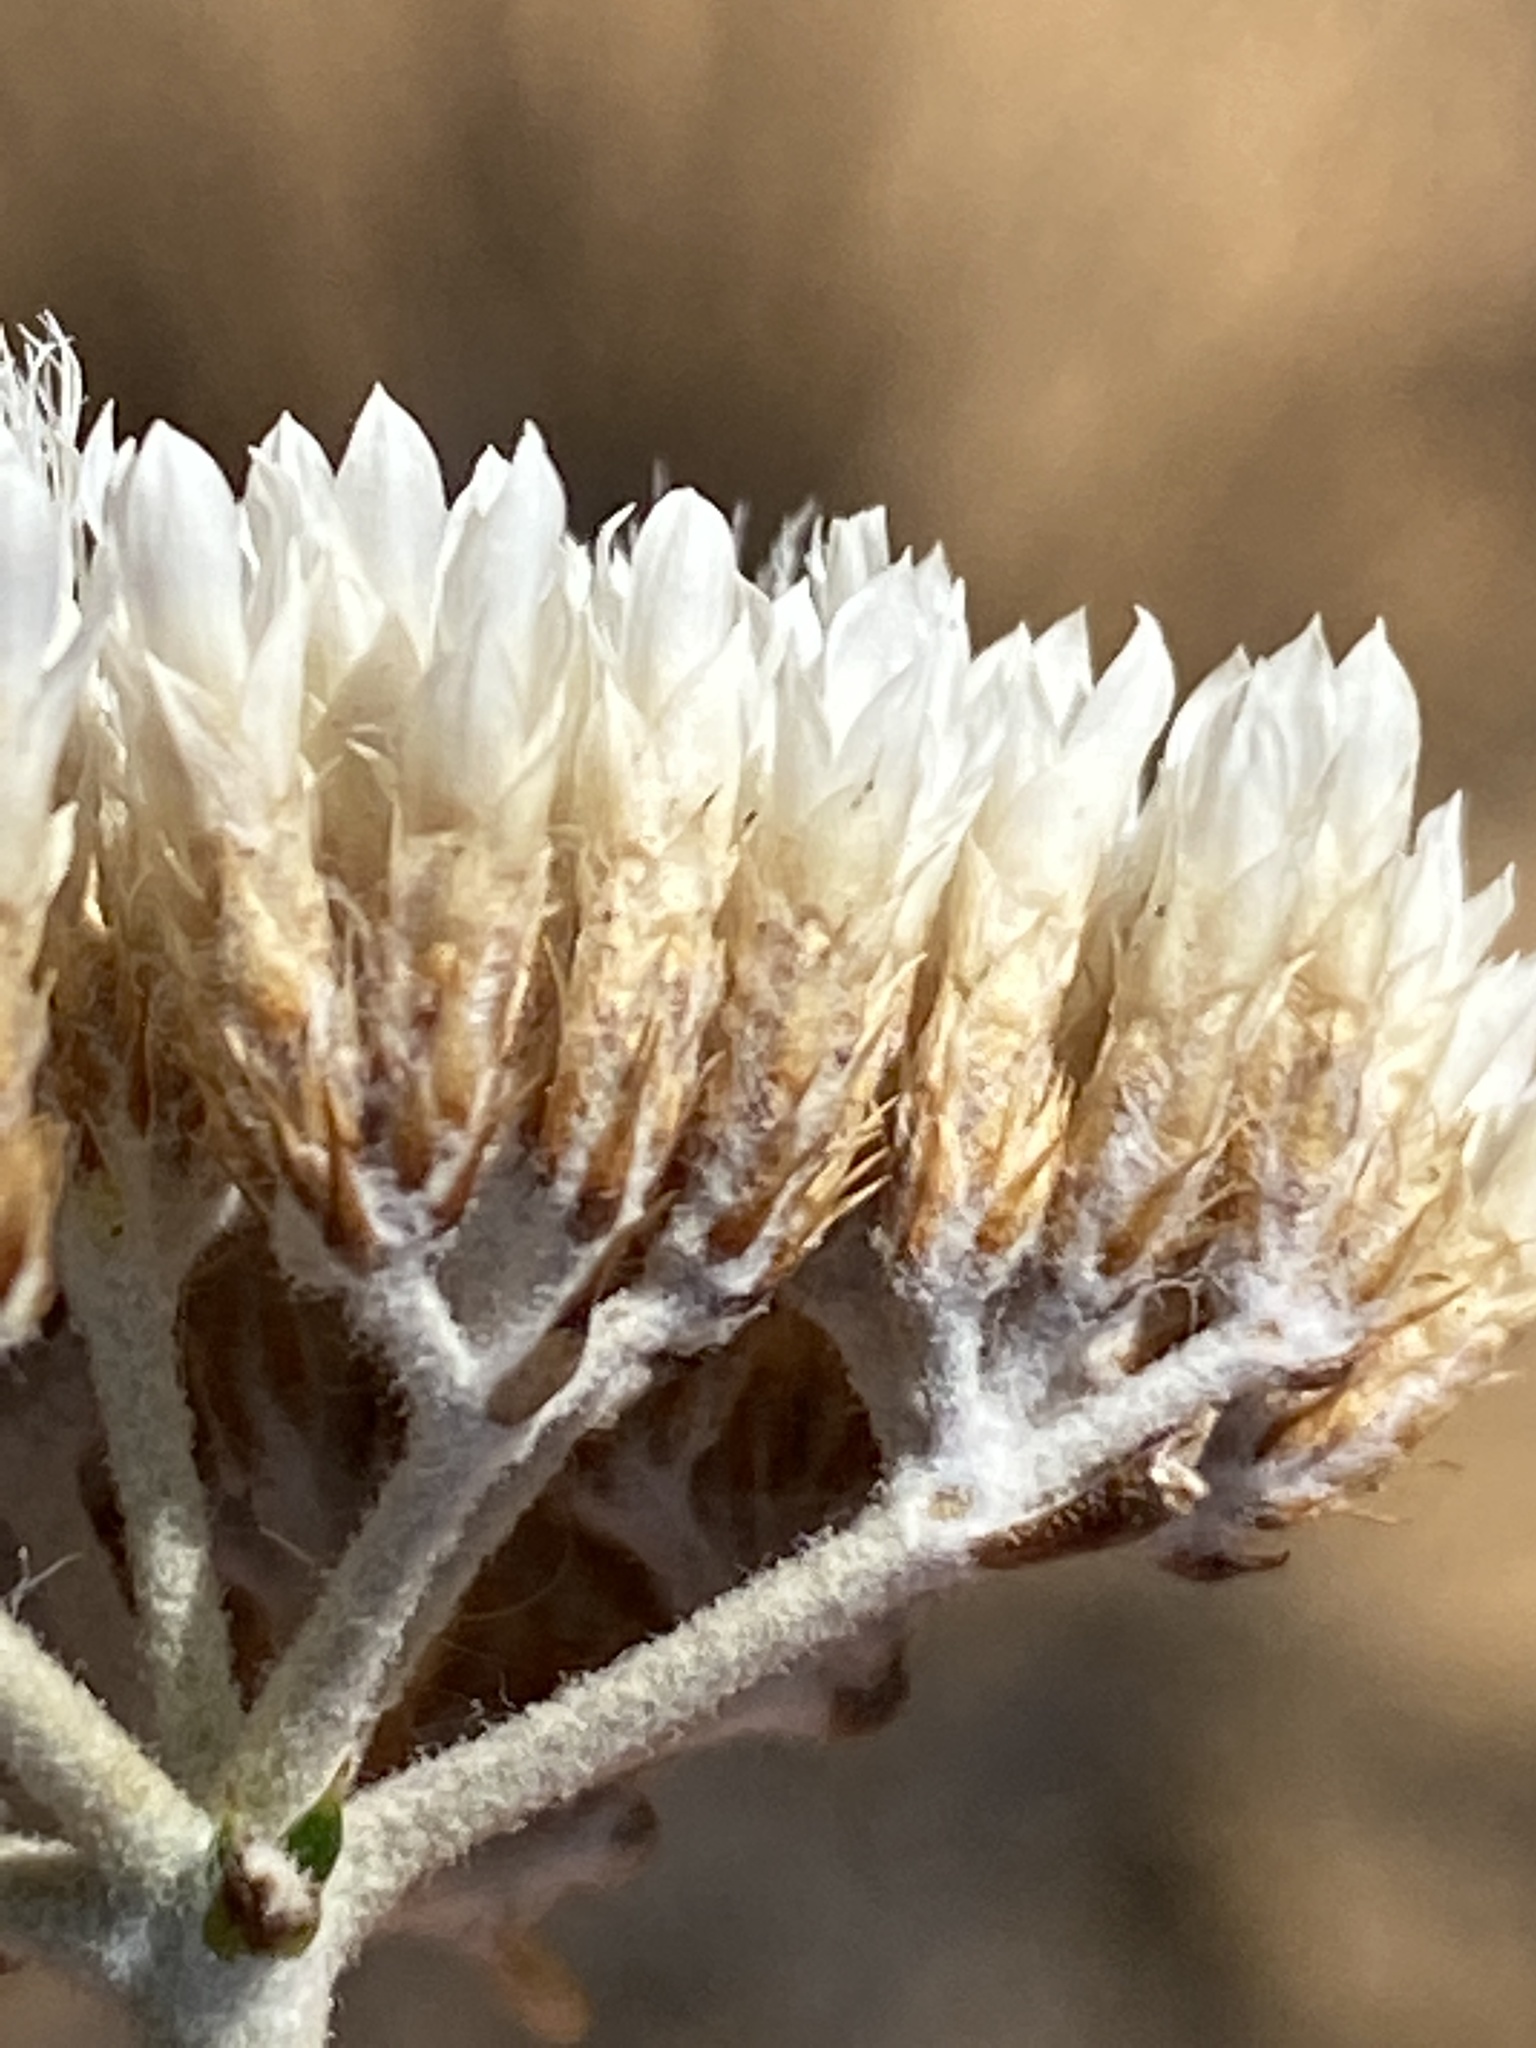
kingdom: Plantae
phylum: Tracheophyta
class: Magnoliopsida
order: Asterales
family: Asteraceae
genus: Metalasia
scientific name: Metalasia dregeana
